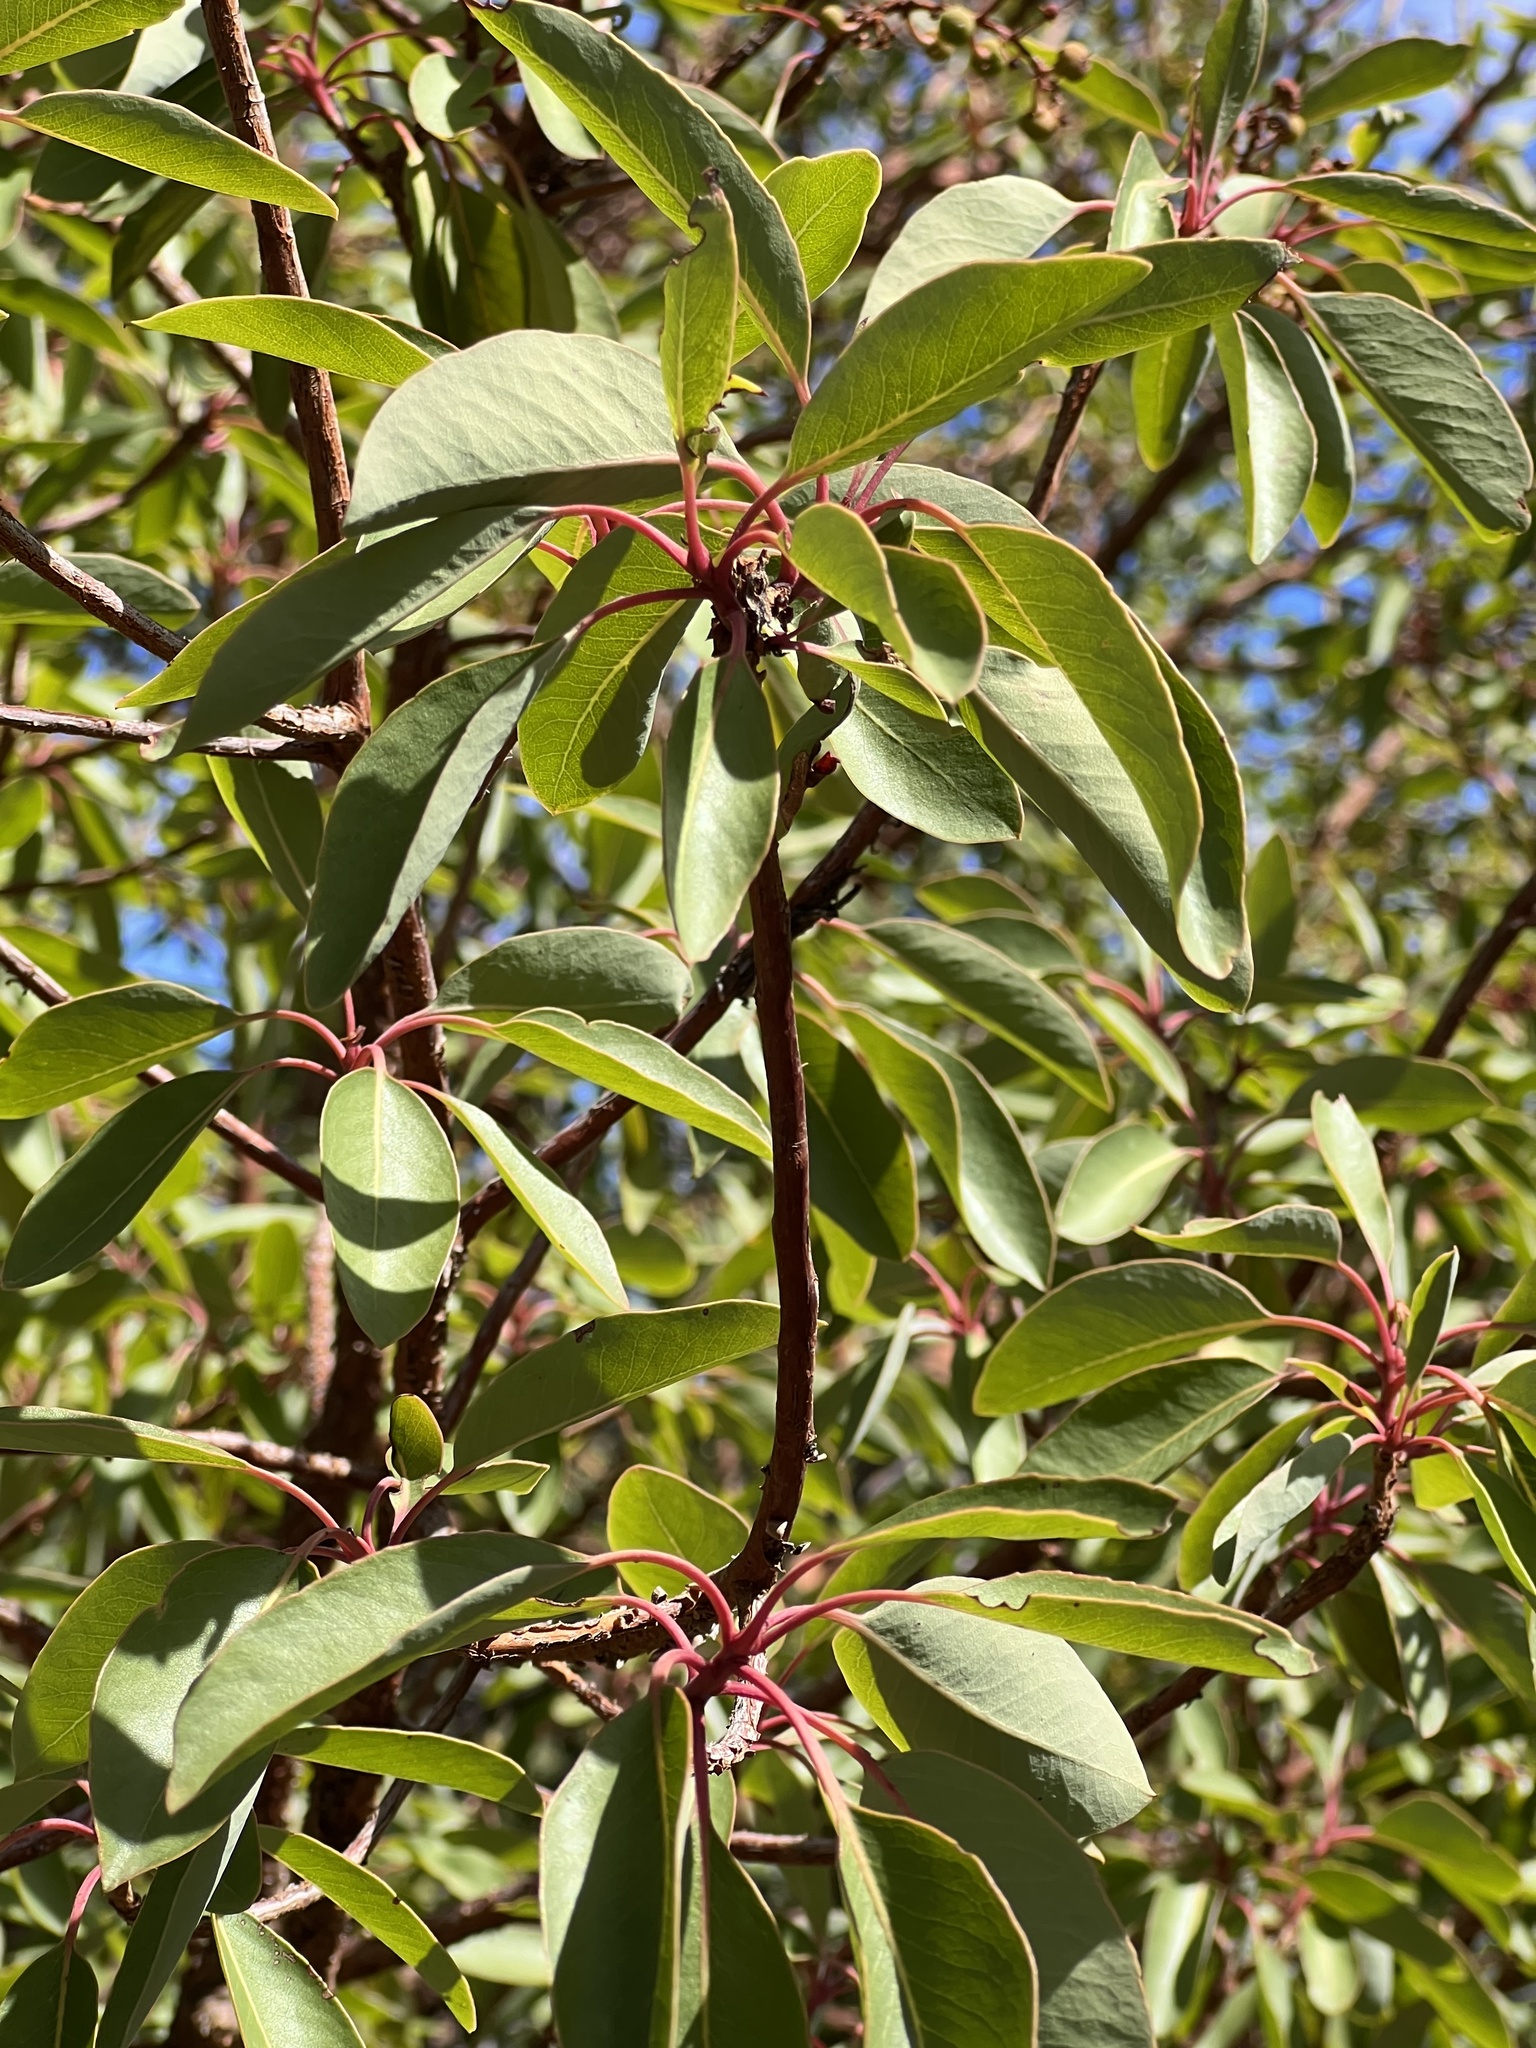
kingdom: Plantae
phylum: Tracheophyta
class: Magnoliopsida
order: Ericales
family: Ericaceae
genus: Arbutus
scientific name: Arbutus arizonica
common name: Arizona madrone
